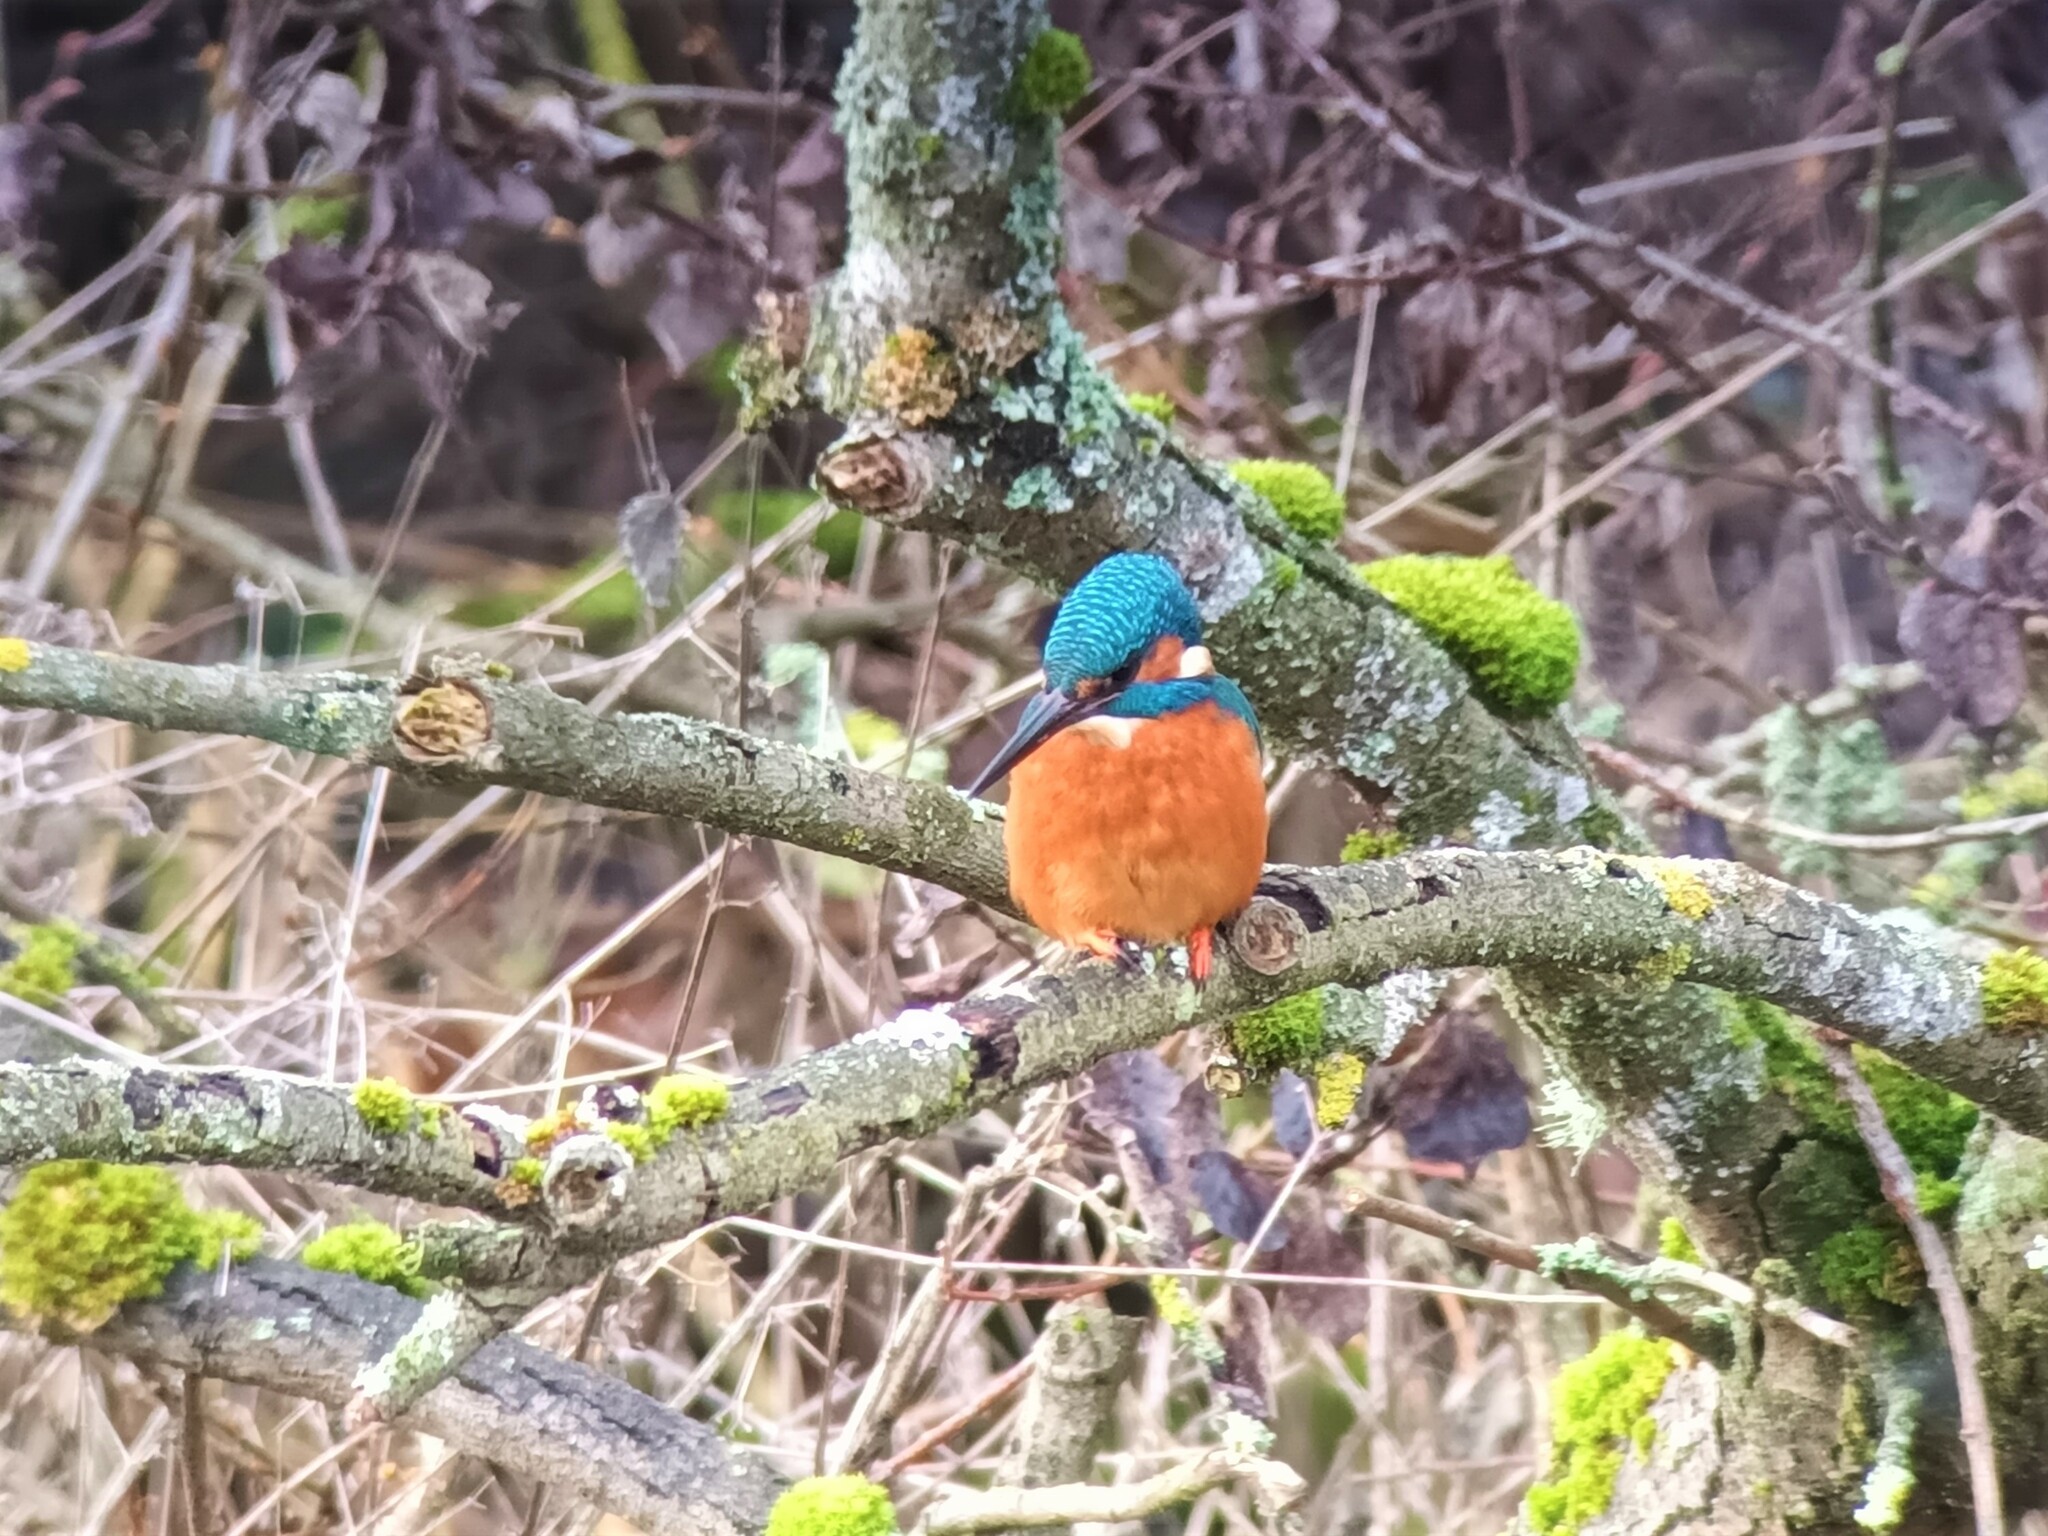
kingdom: Animalia
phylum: Chordata
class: Aves
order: Coraciiformes
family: Alcedinidae
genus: Alcedo
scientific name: Alcedo atthis
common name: Common kingfisher
